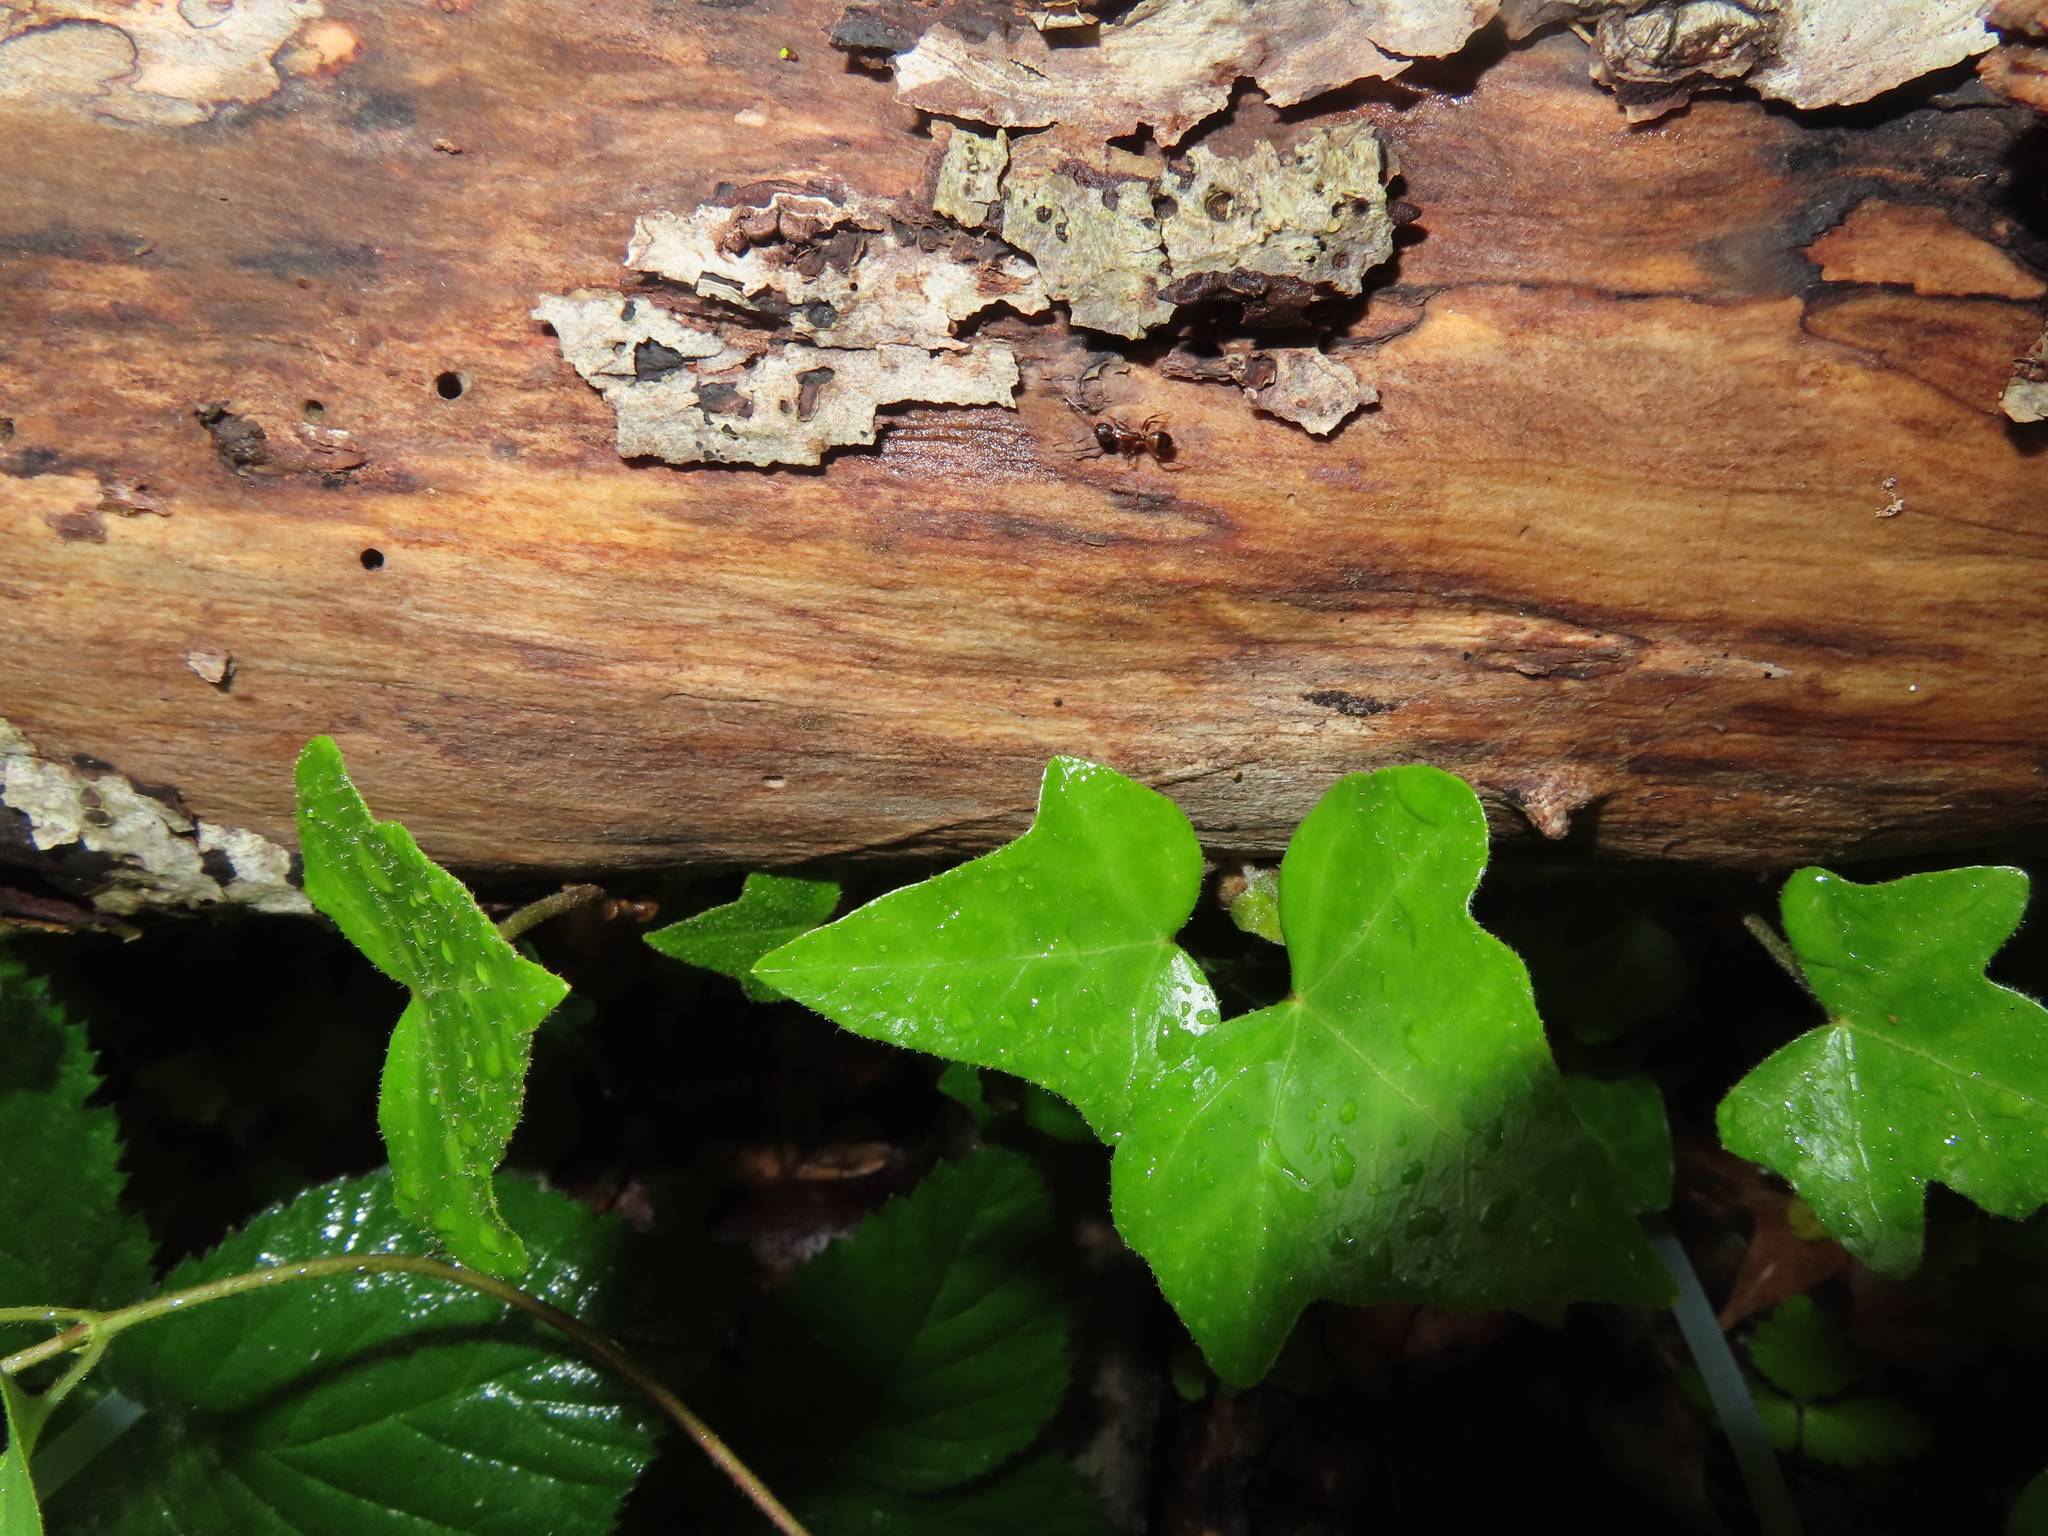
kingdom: Animalia
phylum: Arthropoda
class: Insecta
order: Hymenoptera
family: Formicidae
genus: Camponotus
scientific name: Camponotus subbarbatus
